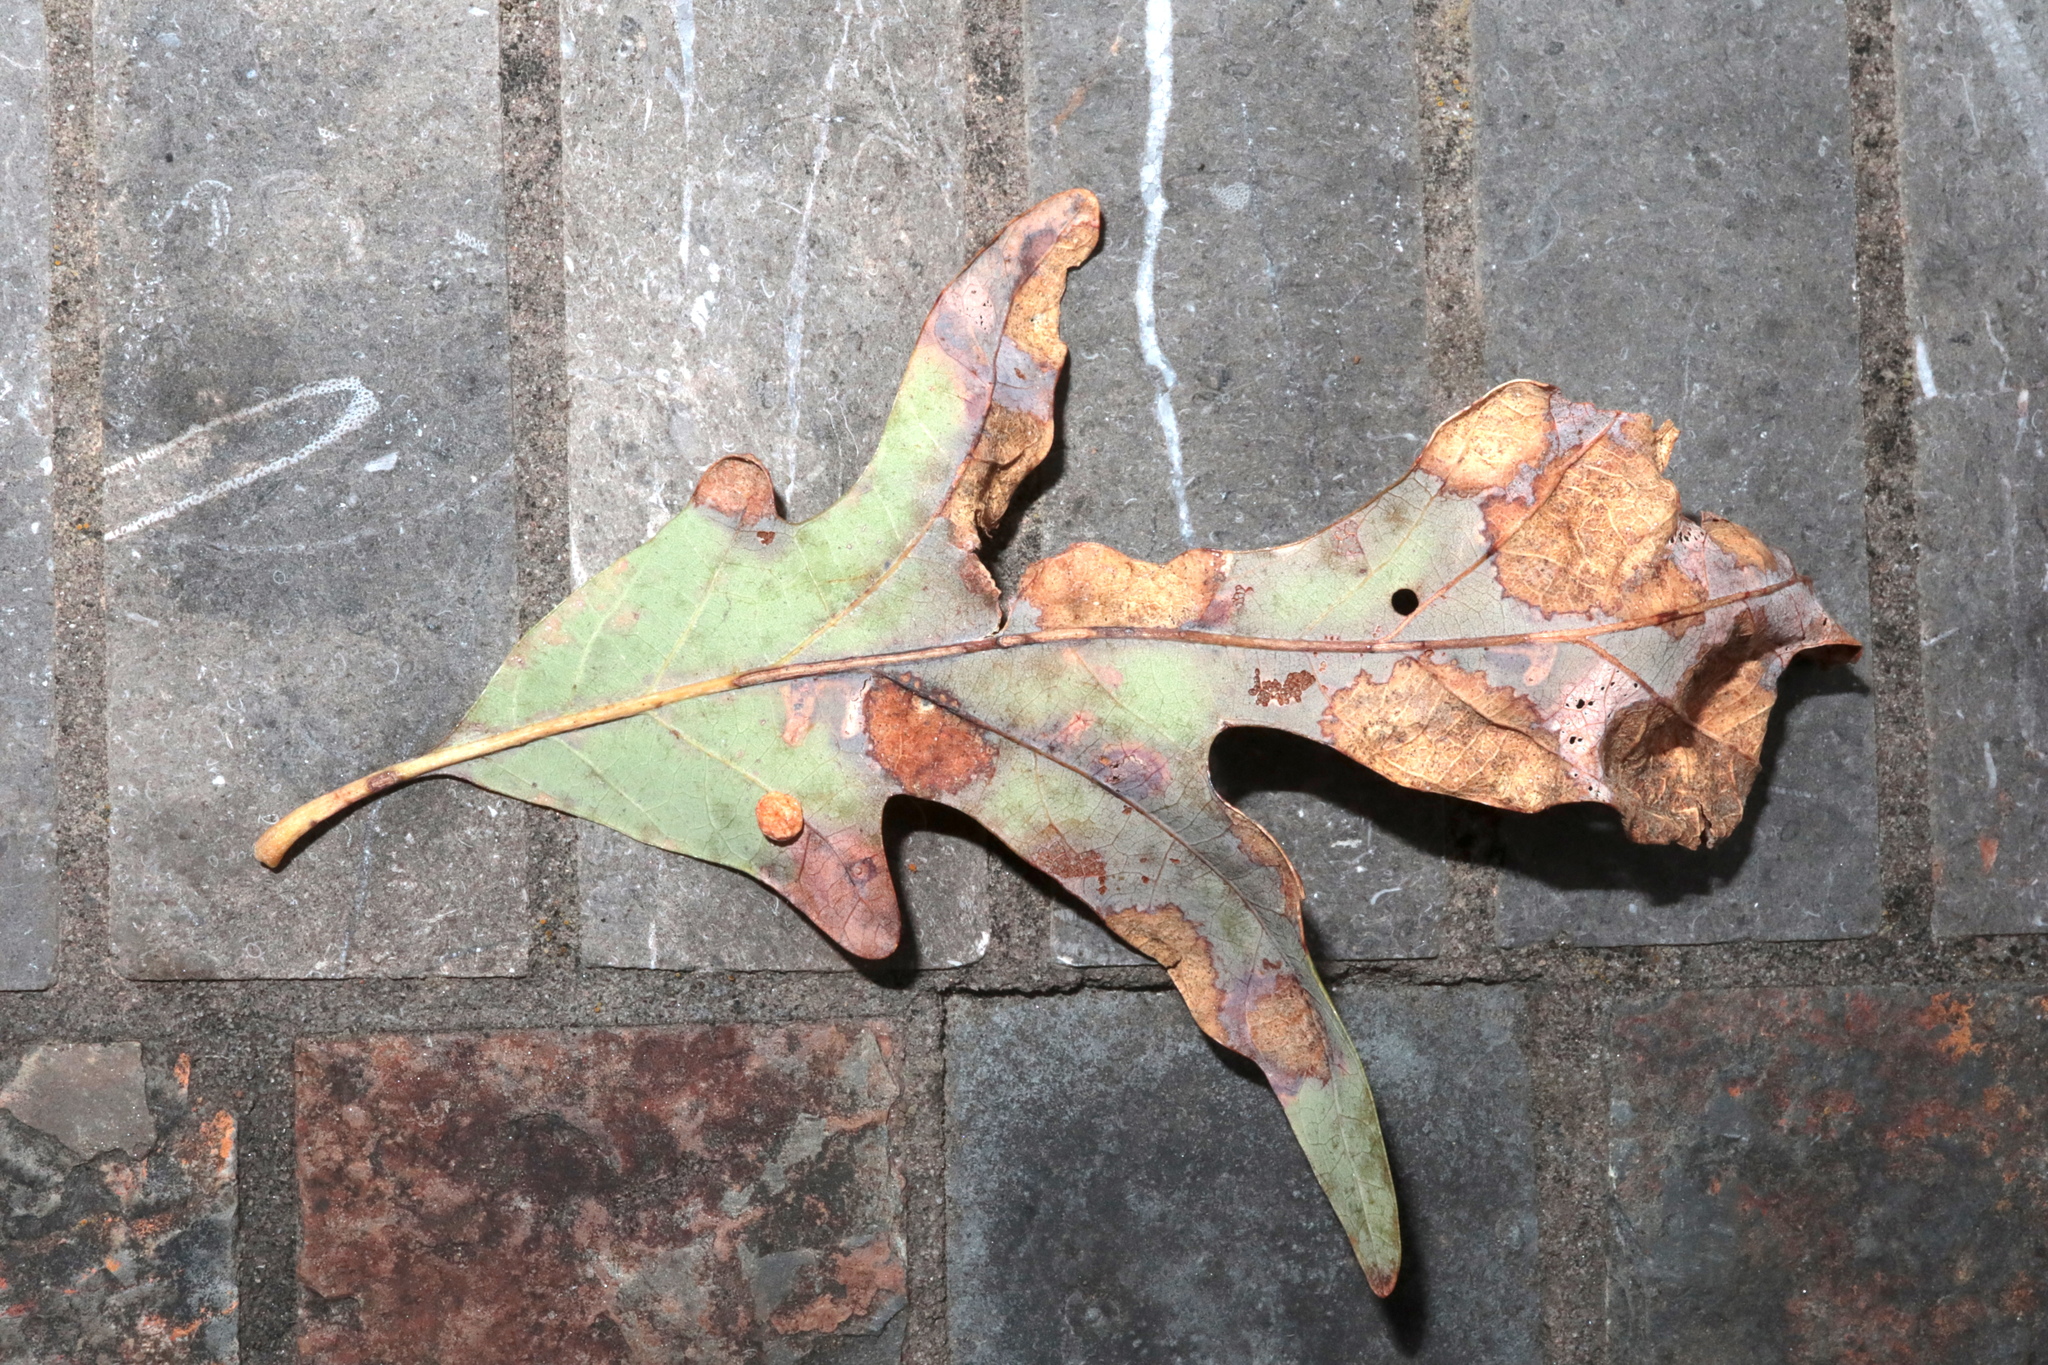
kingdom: Animalia
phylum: Arthropoda
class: Insecta
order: Hymenoptera
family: Cynipidae
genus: Phylloteras
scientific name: Phylloteras
